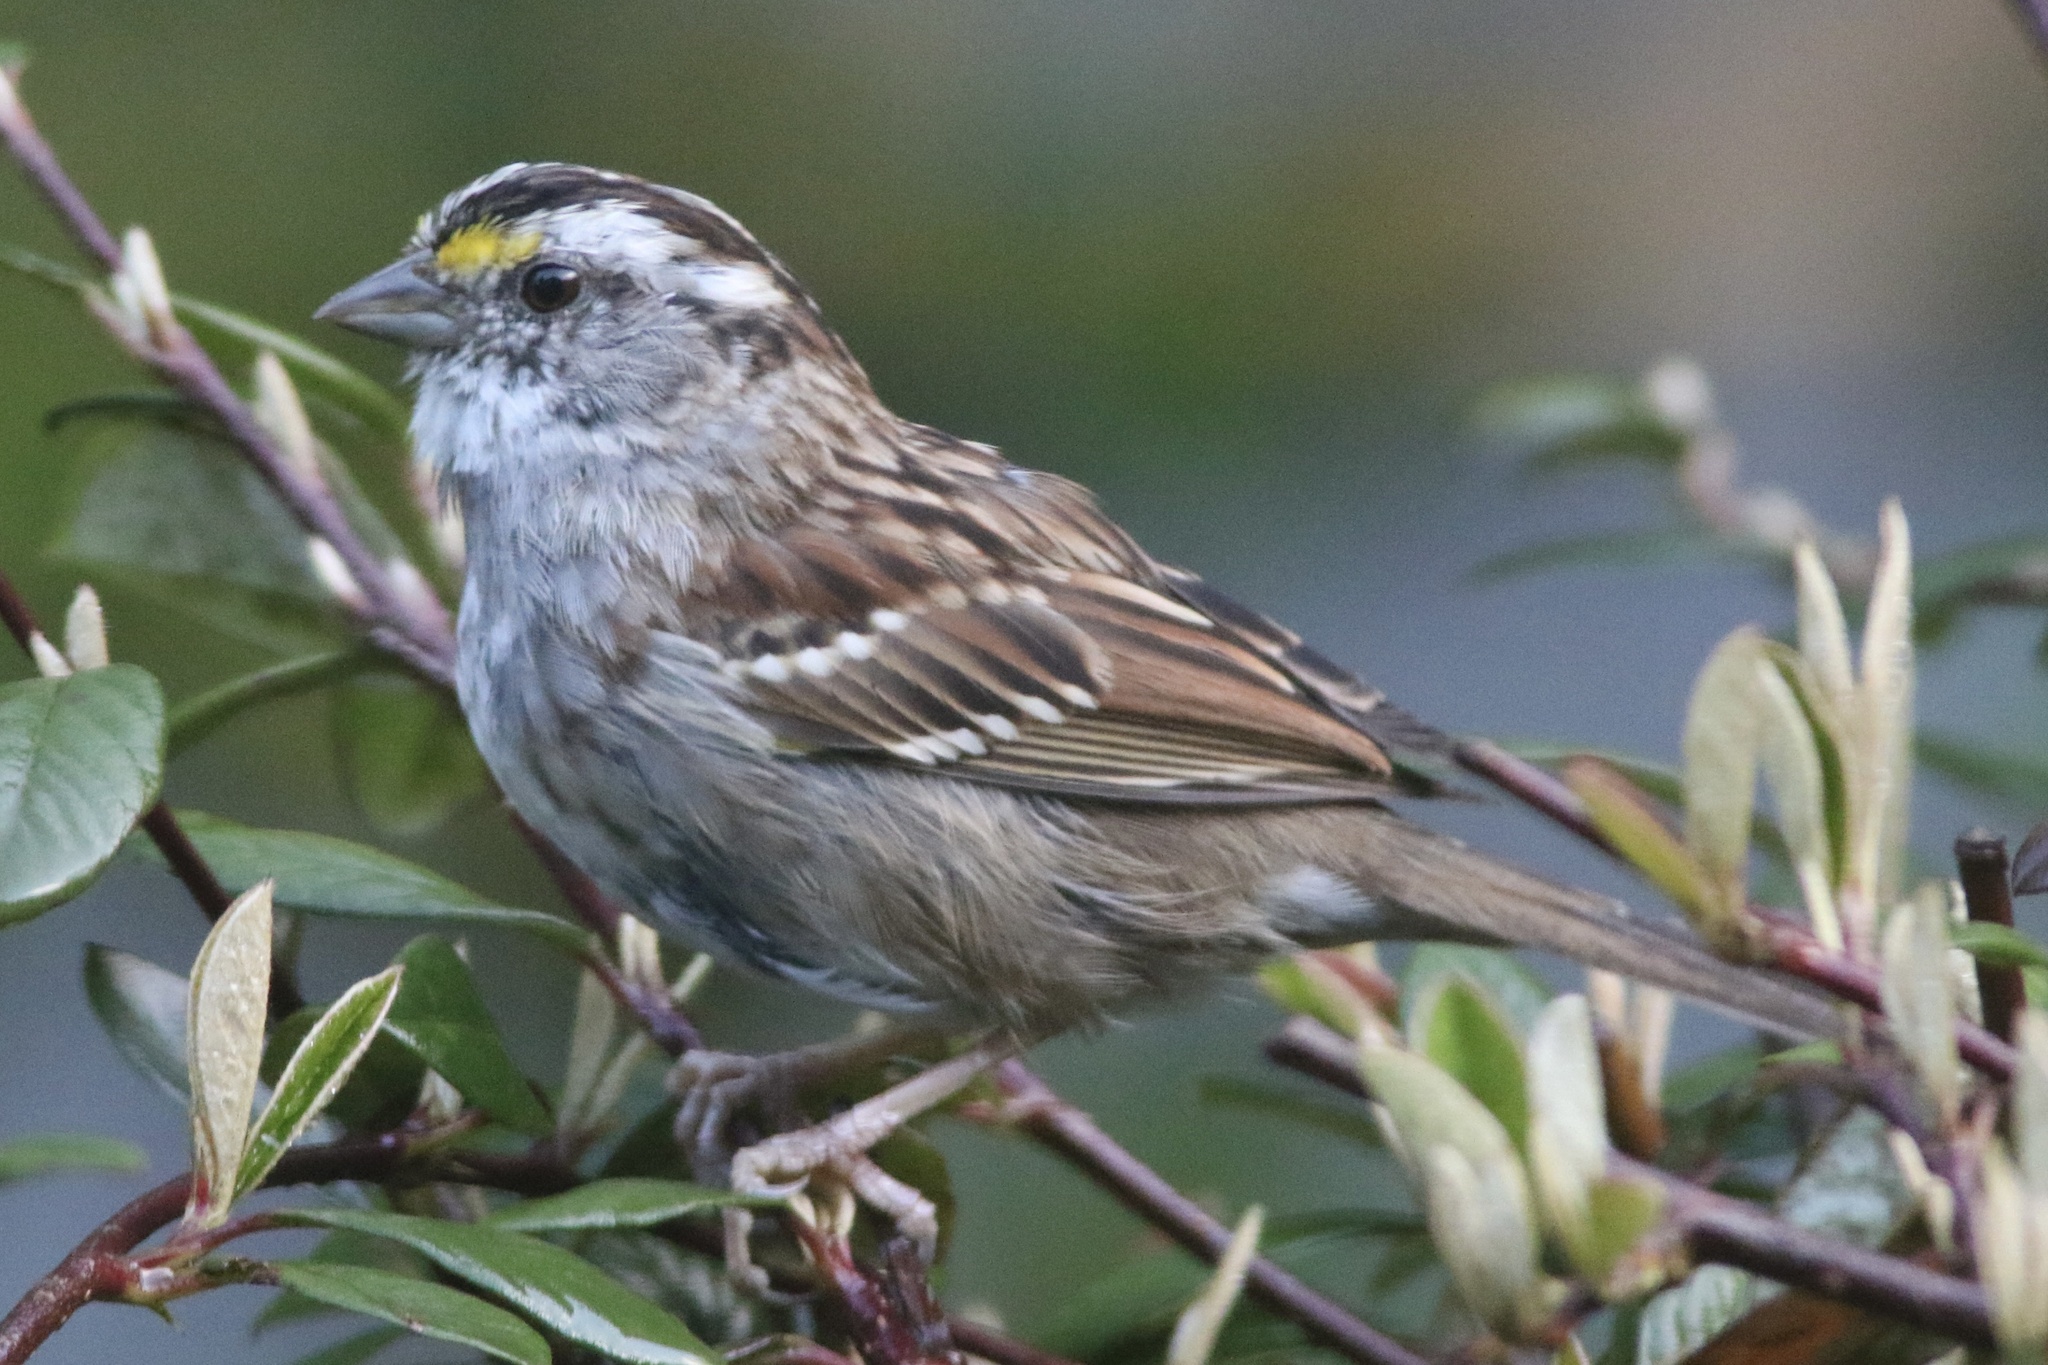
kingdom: Animalia
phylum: Chordata
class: Aves
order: Passeriformes
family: Passerellidae
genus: Zonotrichia
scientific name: Zonotrichia albicollis
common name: White-throated sparrow
